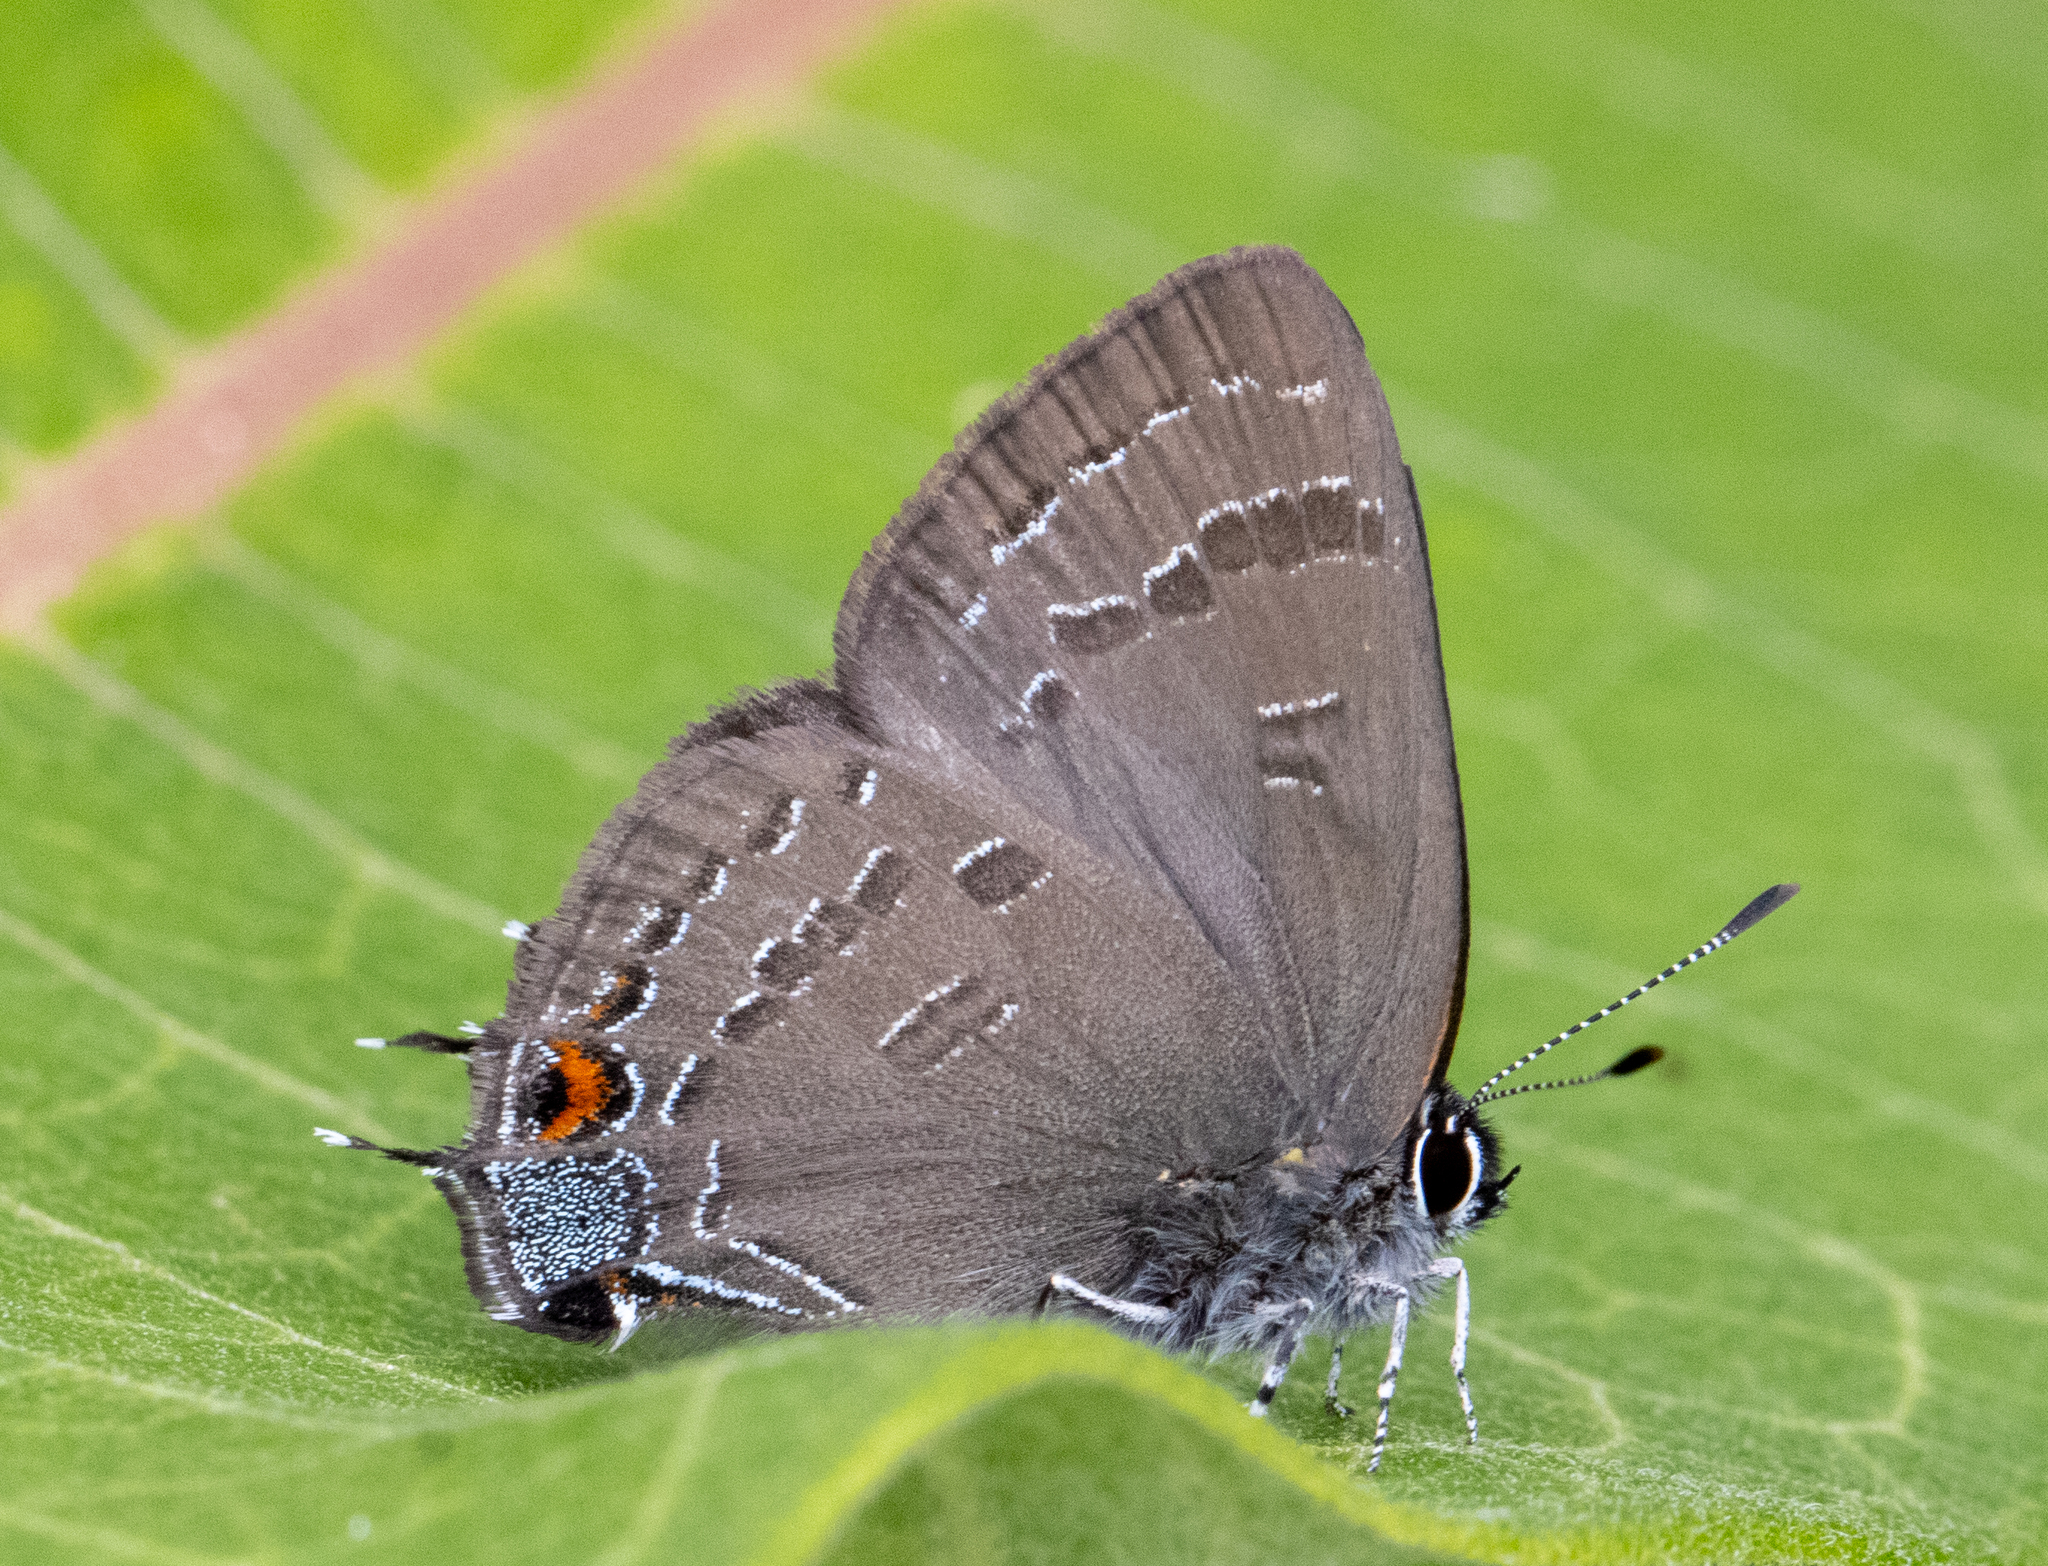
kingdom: Animalia
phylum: Arthropoda
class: Insecta
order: Lepidoptera
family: Lycaenidae
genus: Satyrium
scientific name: Satyrium calanus
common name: Banded hairstreak
